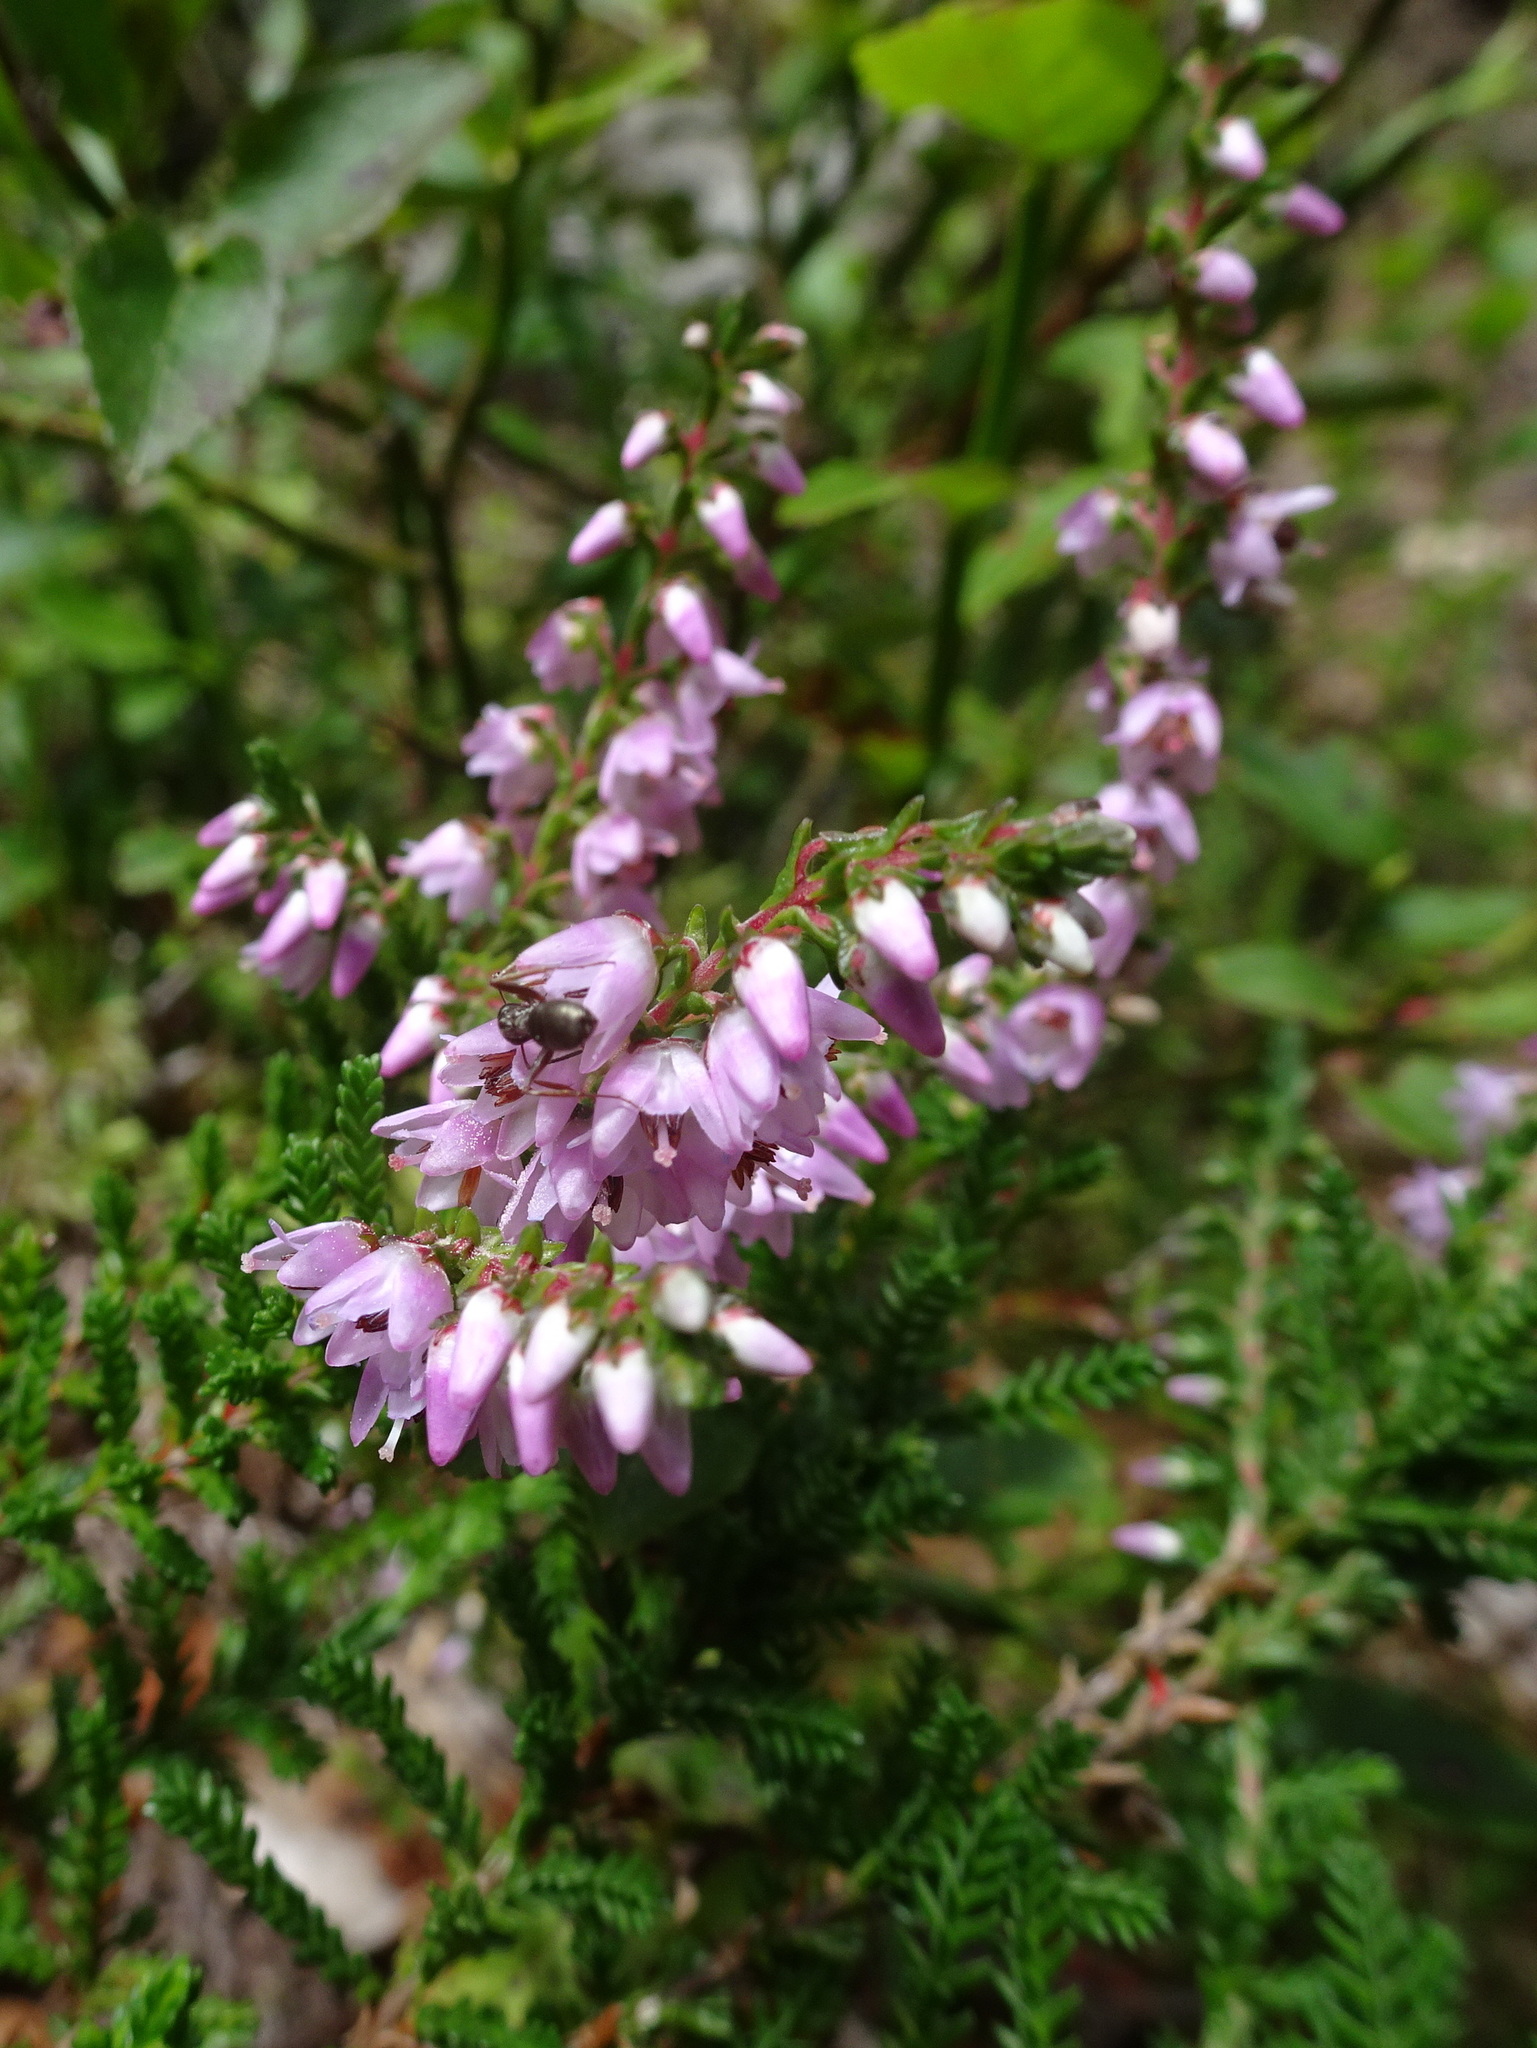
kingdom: Plantae
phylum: Tracheophyta
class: Magnoliopsida
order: Ericales
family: Ericaceae
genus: Calluna
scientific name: Calluna vulgaris
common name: Heather
